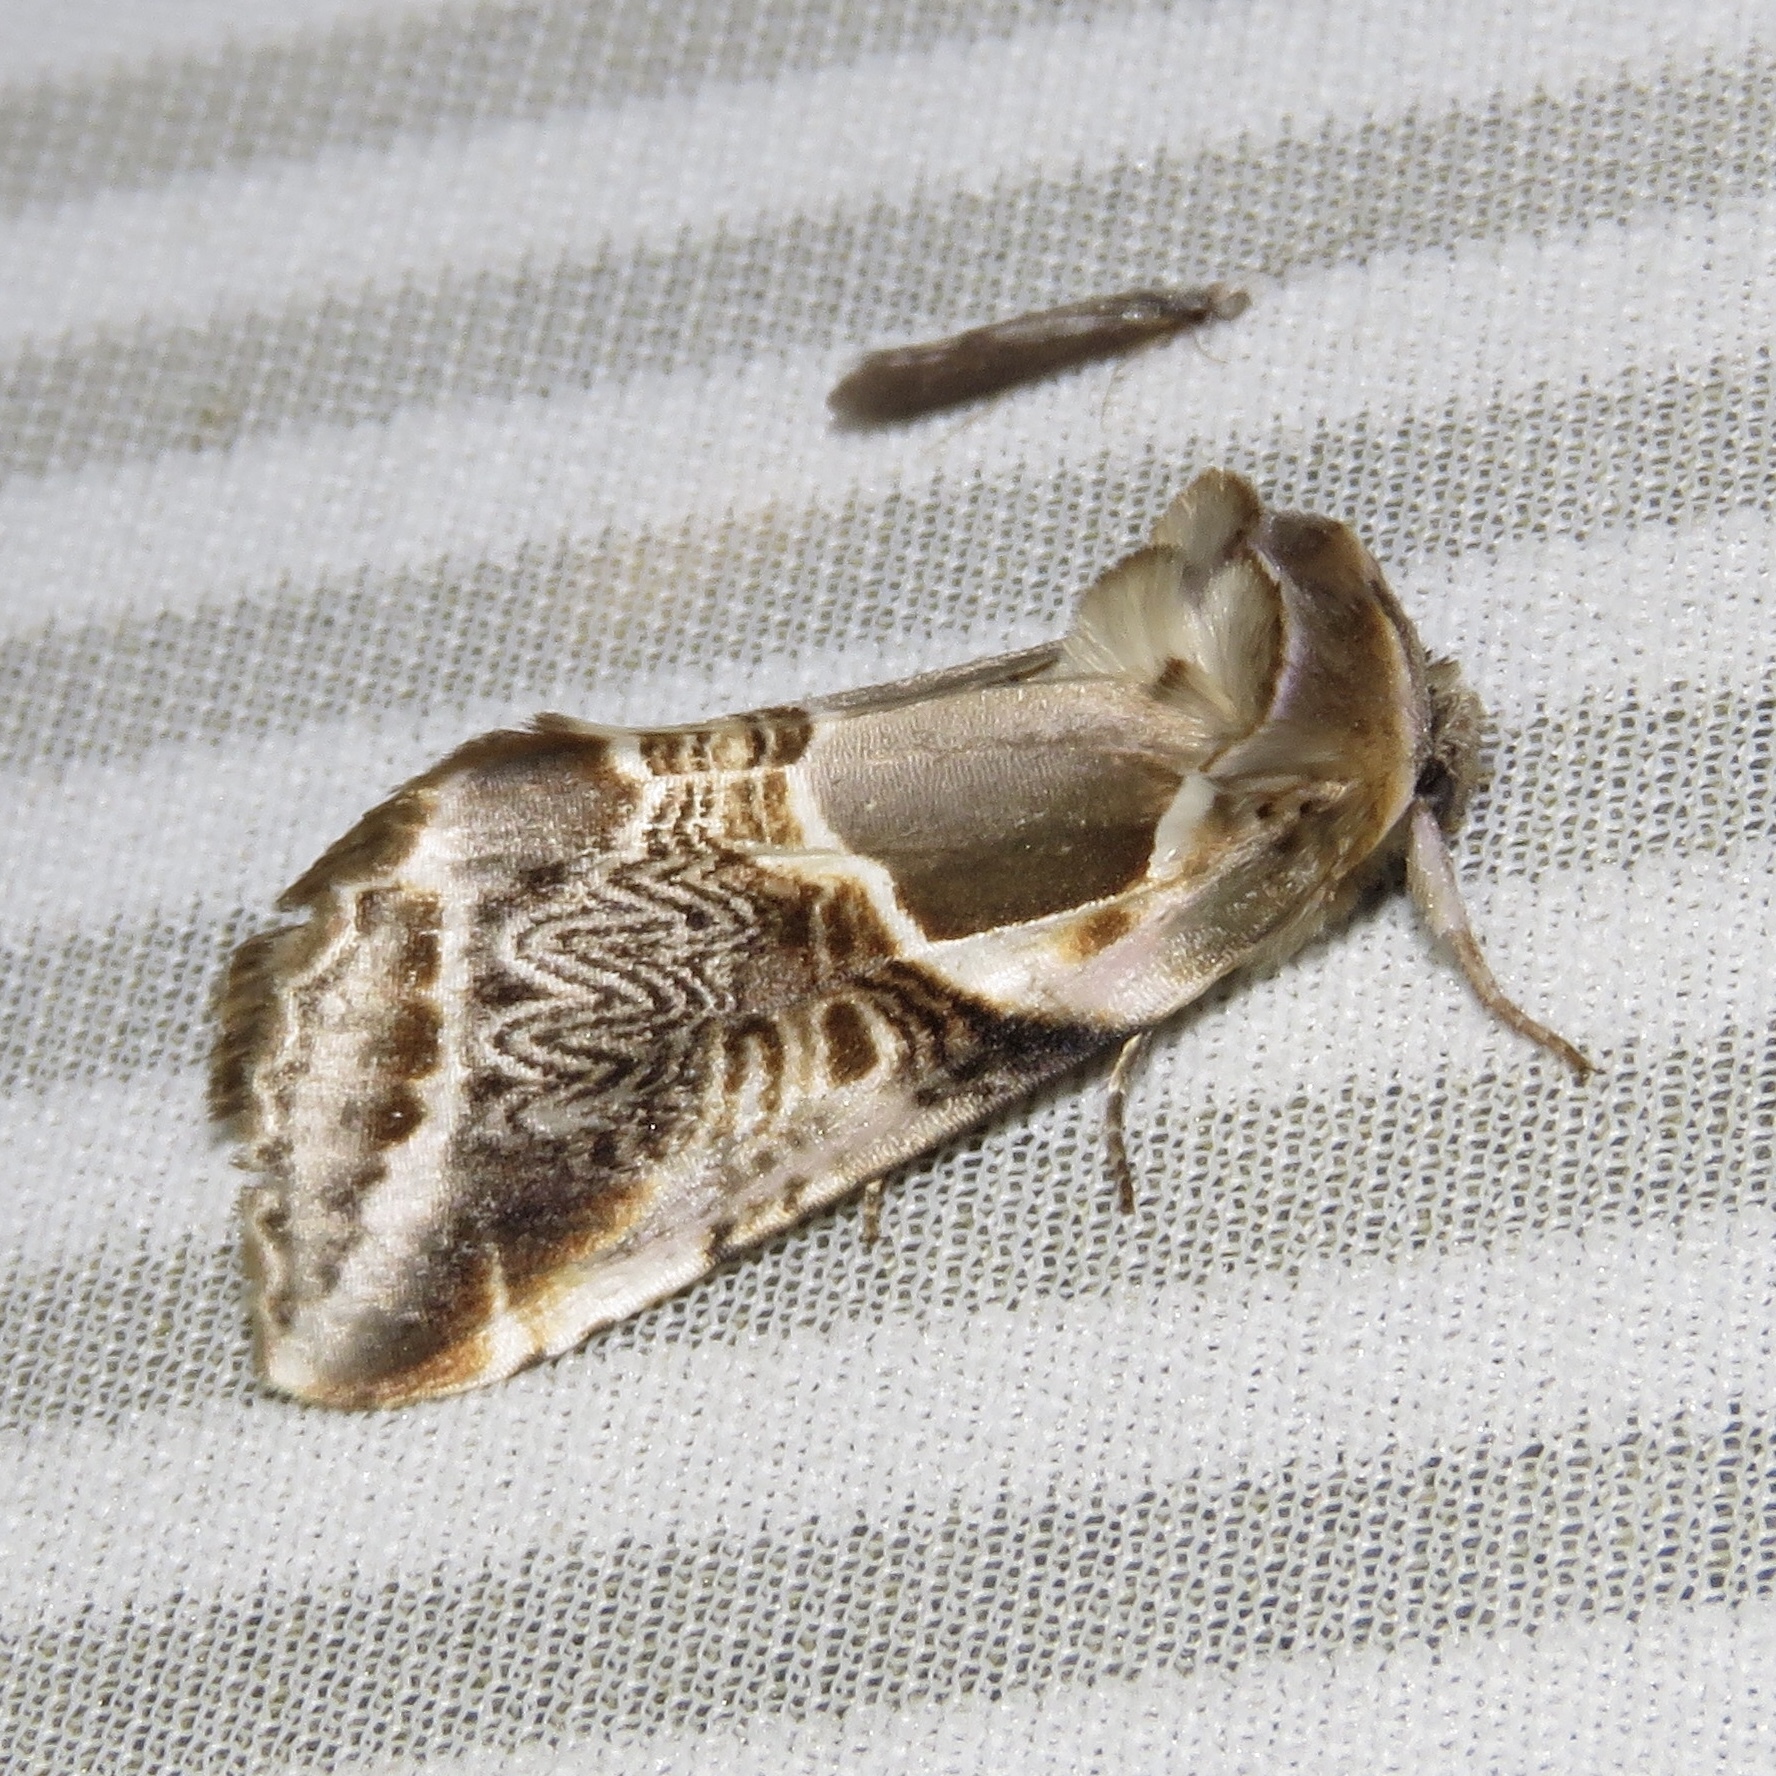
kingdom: Animalia
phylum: Arthropoda
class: Insecta
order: Lepidoptera
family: Drepanidae
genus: Habrosyne
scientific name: Habrosyne scripta
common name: Lettered habrosyne moth
